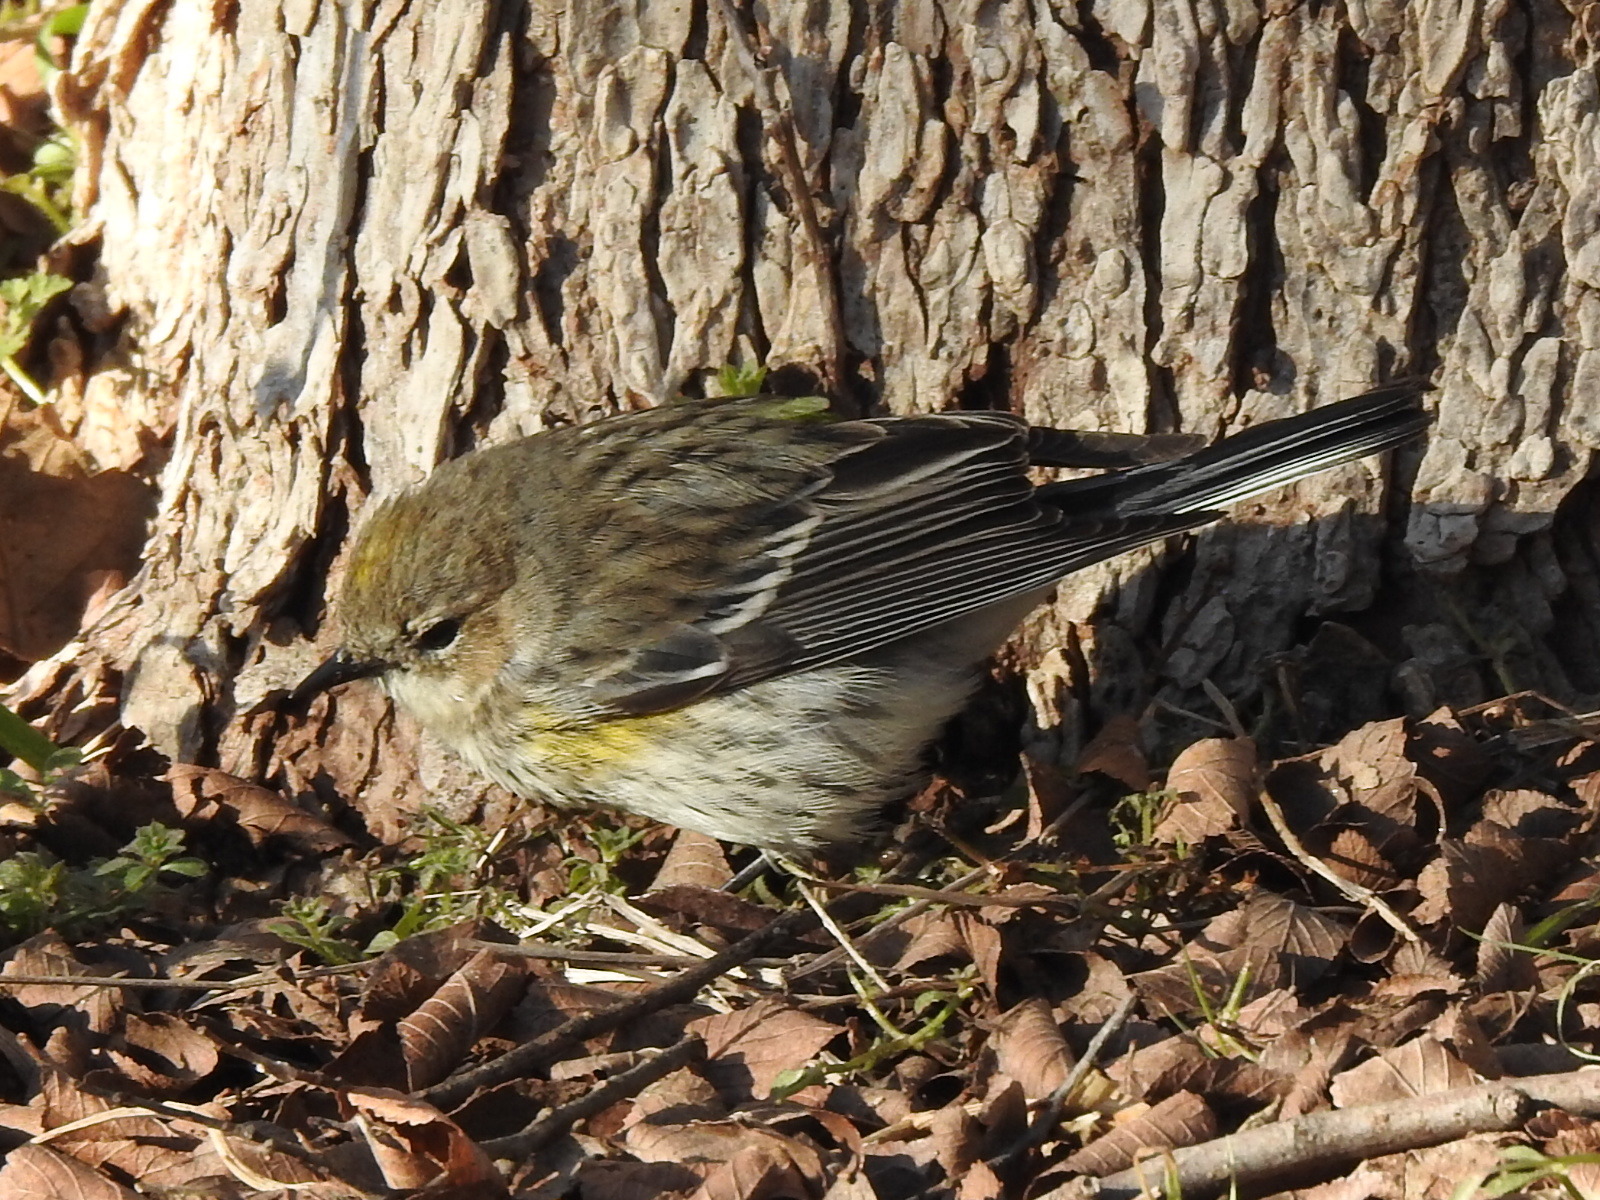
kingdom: Animalia
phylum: Chordata
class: Aves
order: Passeriformes
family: Parulidae
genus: Setophaga
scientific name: Setophaga coronata
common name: Myrtle warbler
